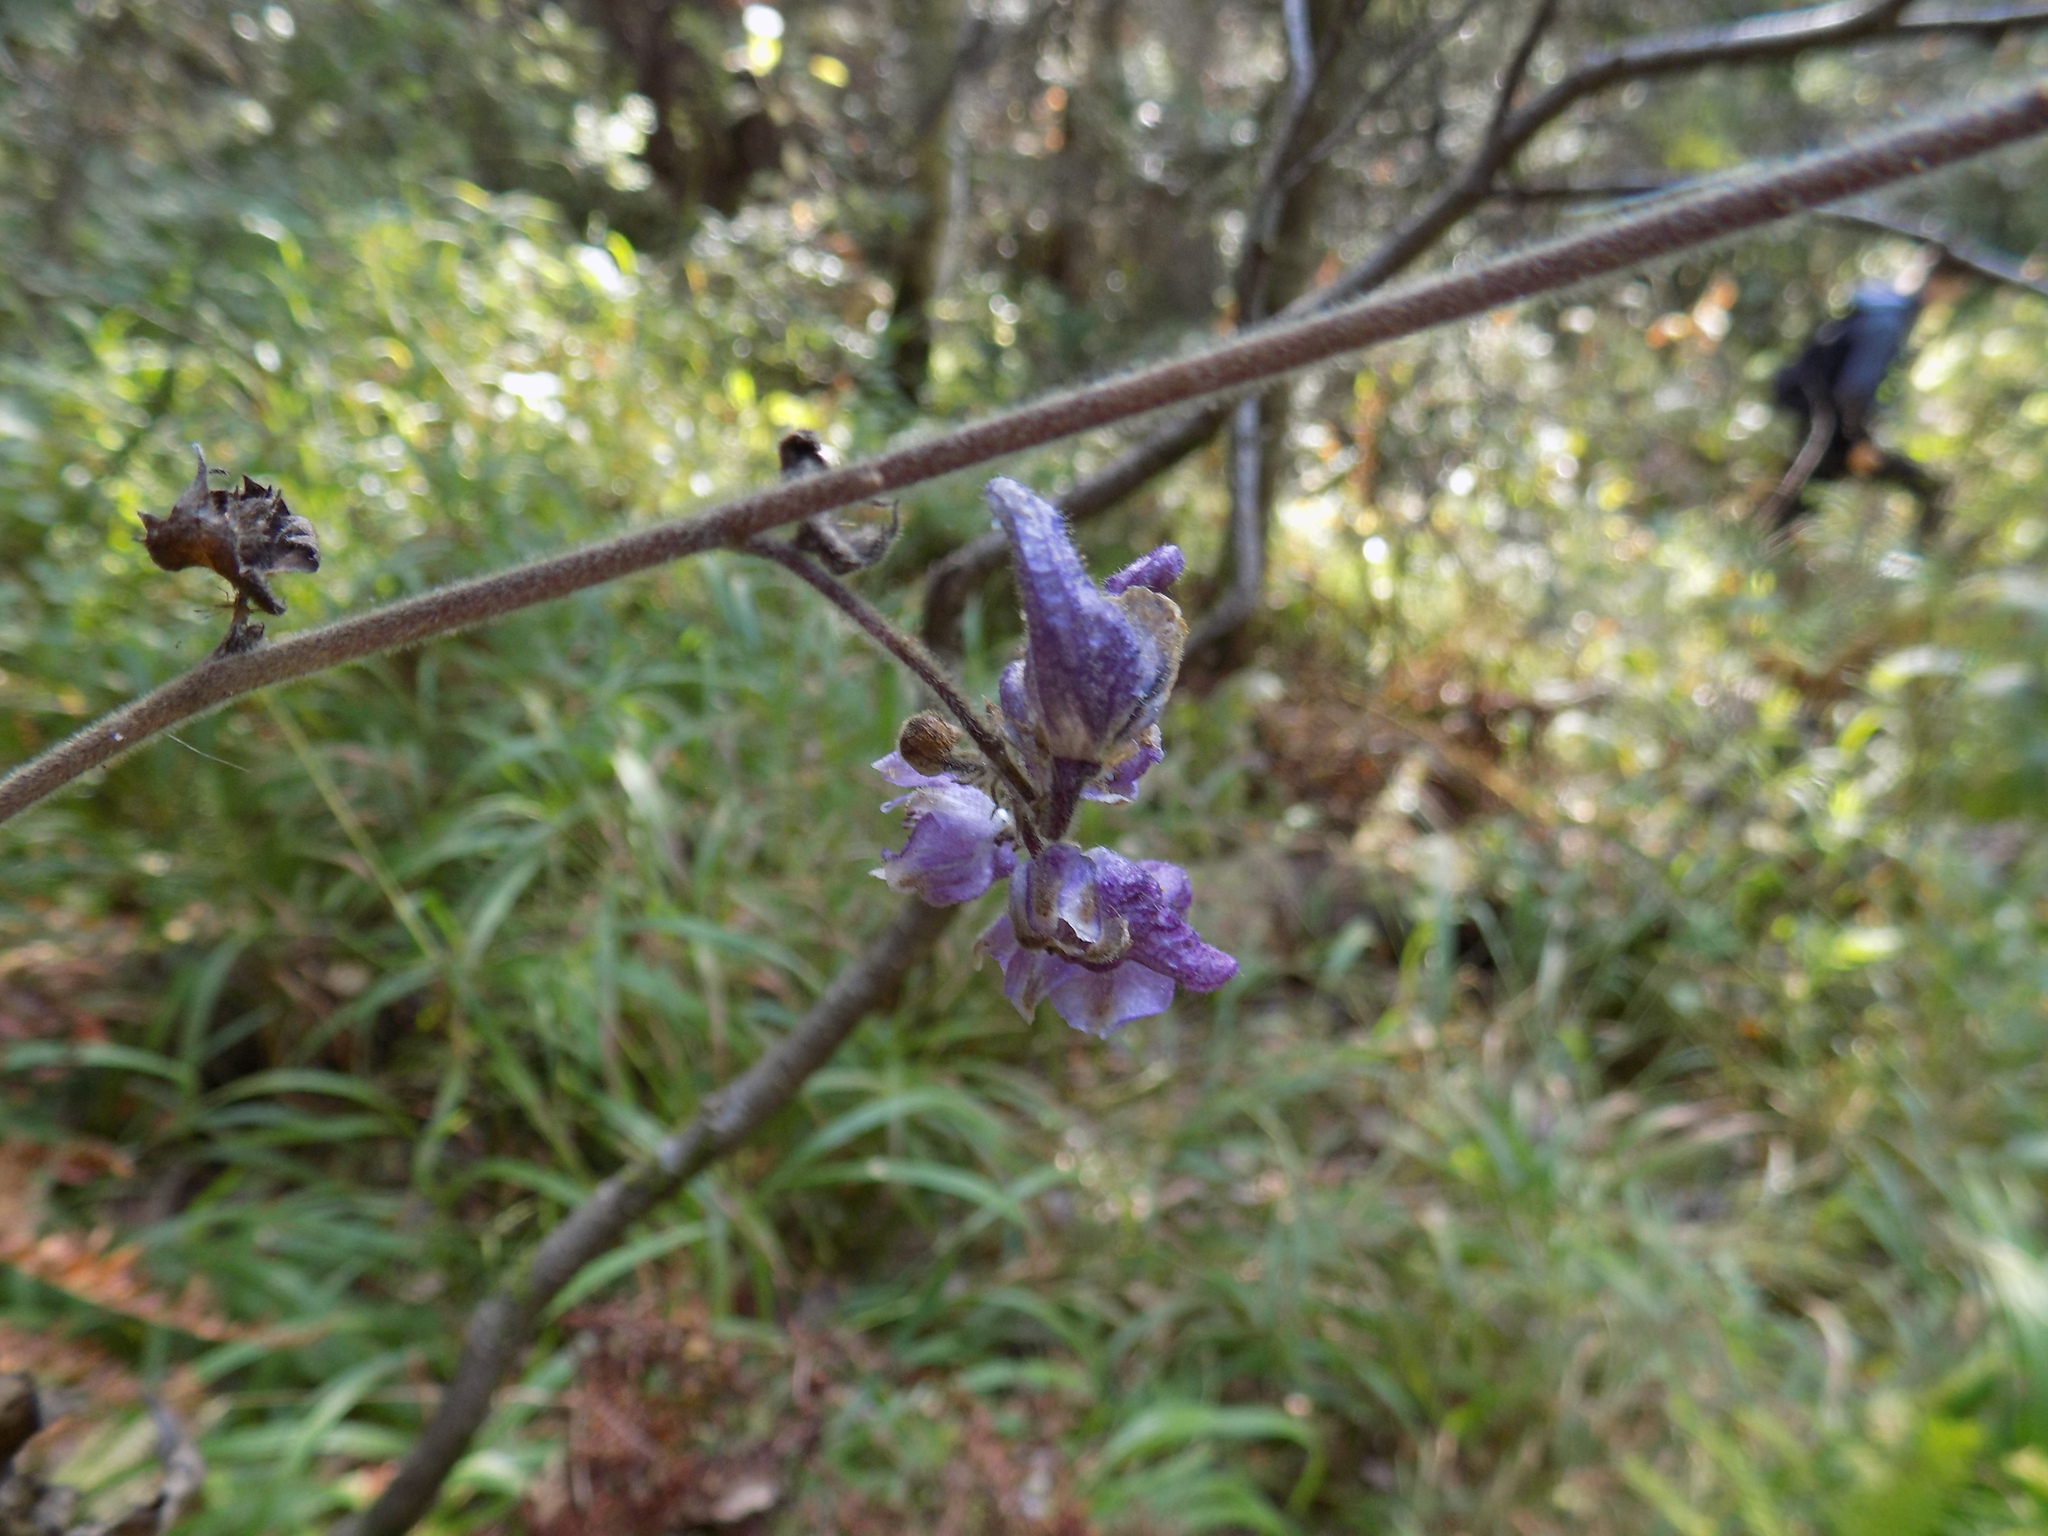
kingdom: Plantae
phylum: Tracheophyta
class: Magnoliopsida
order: Ranunculales
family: Ranunculaceae
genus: Aconitum
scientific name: Aconitum septentrionale
